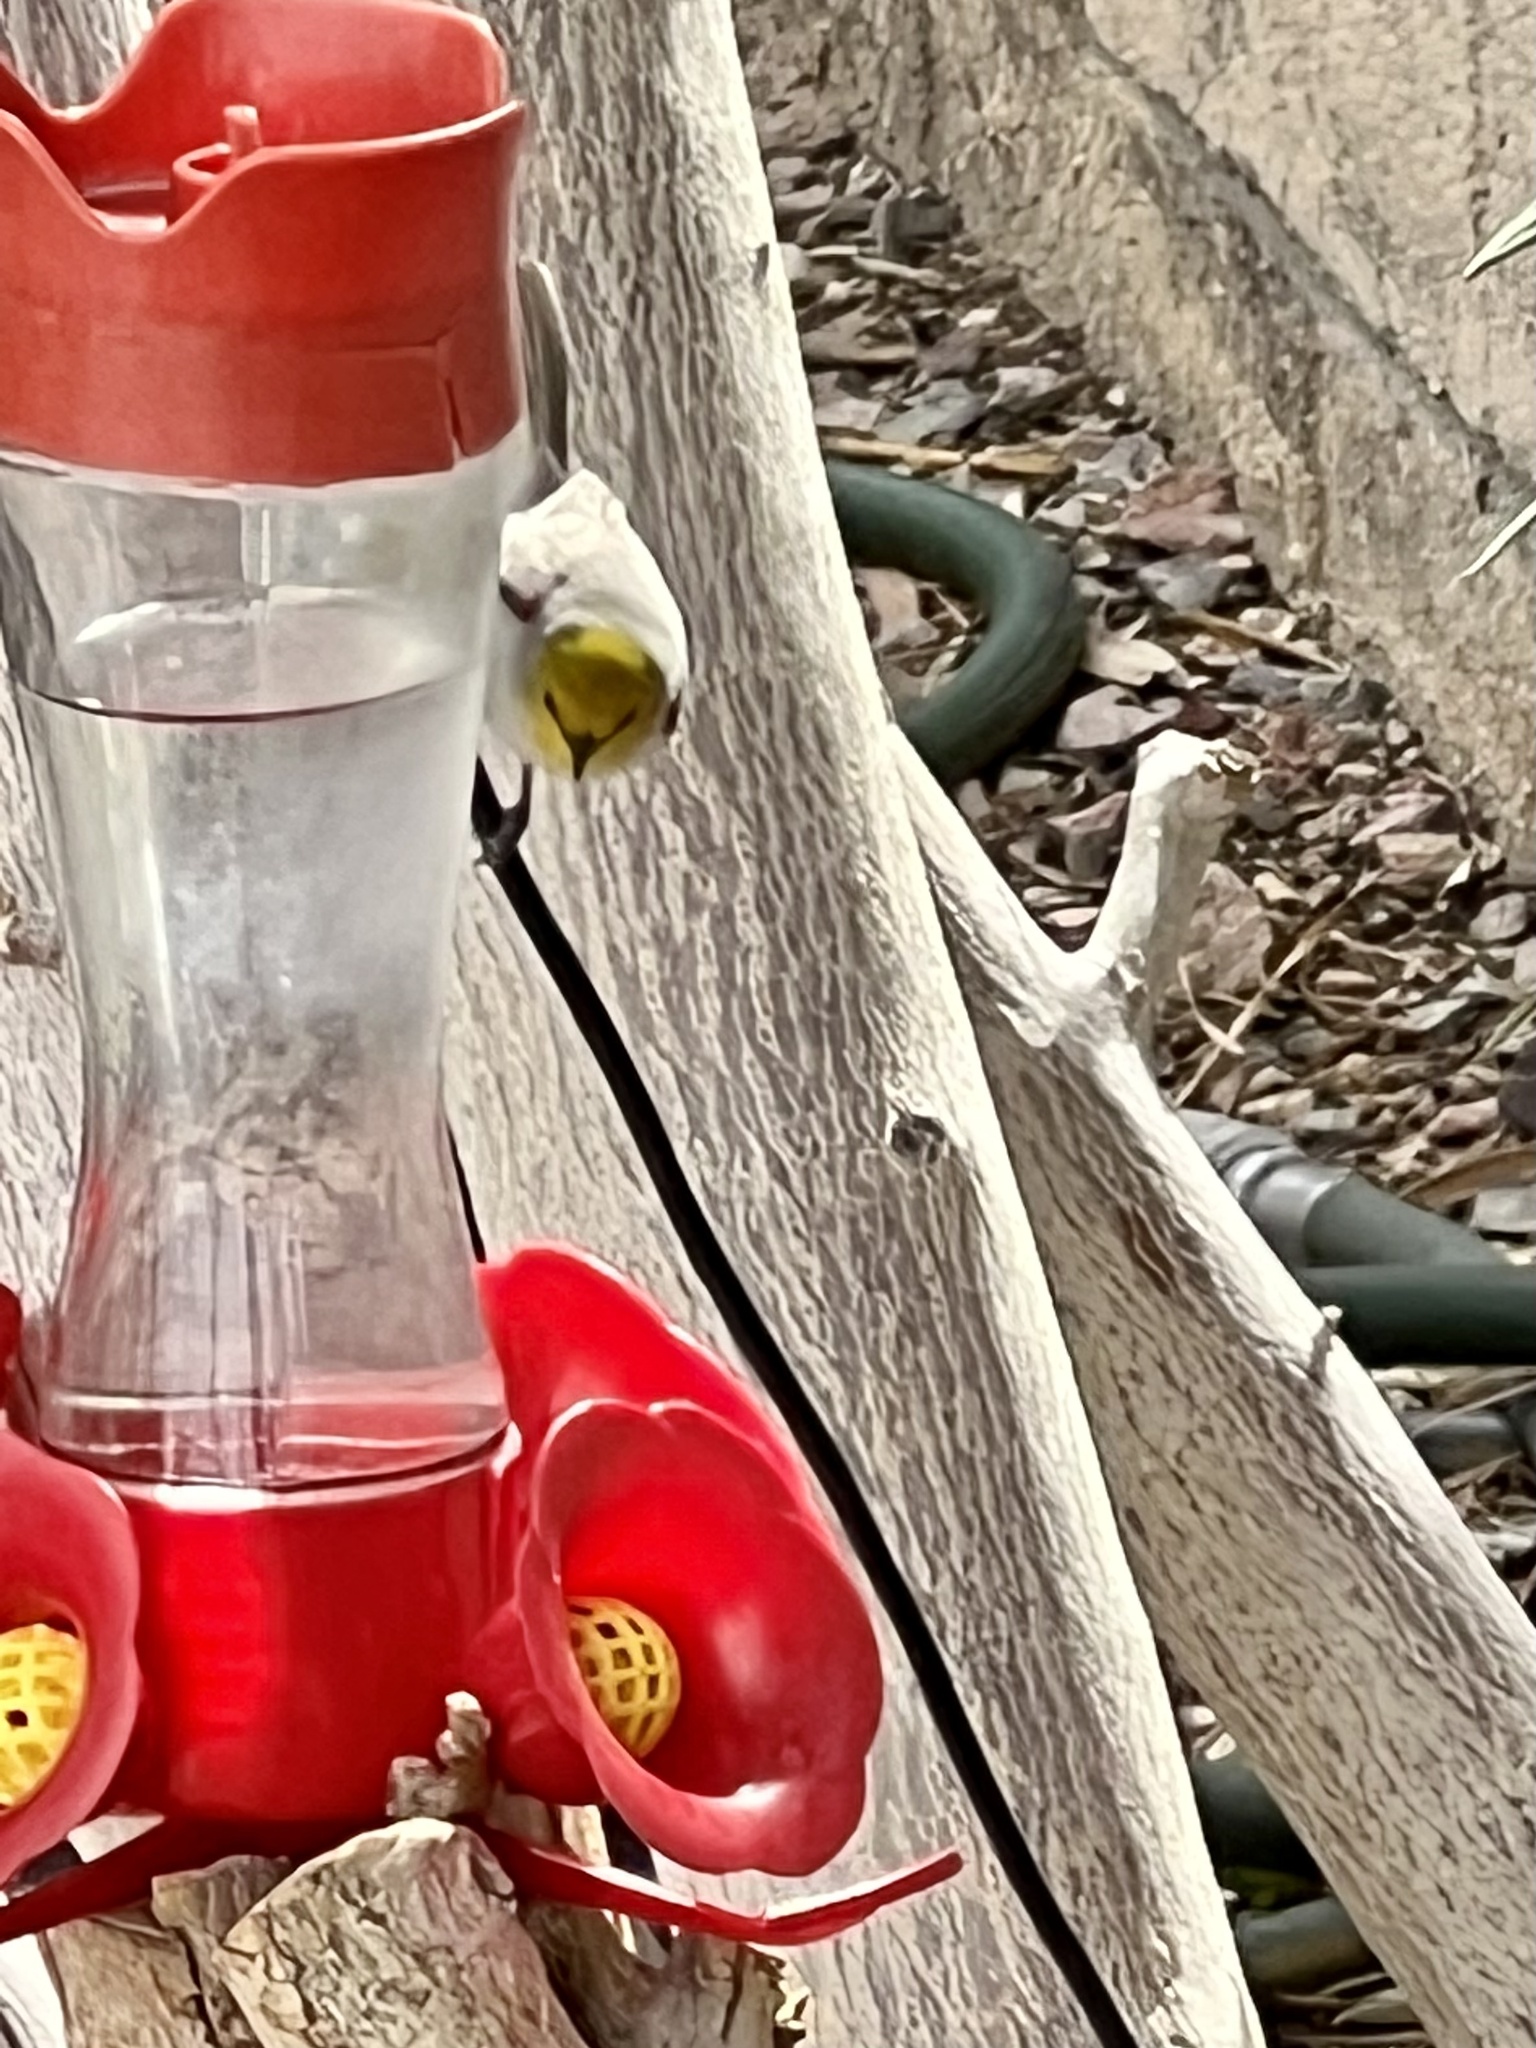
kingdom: Animalia
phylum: Chordata
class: Aves
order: Passeriformes
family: Remizidae
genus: Auriparus
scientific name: Auriparus flaviceps
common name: Verdin
